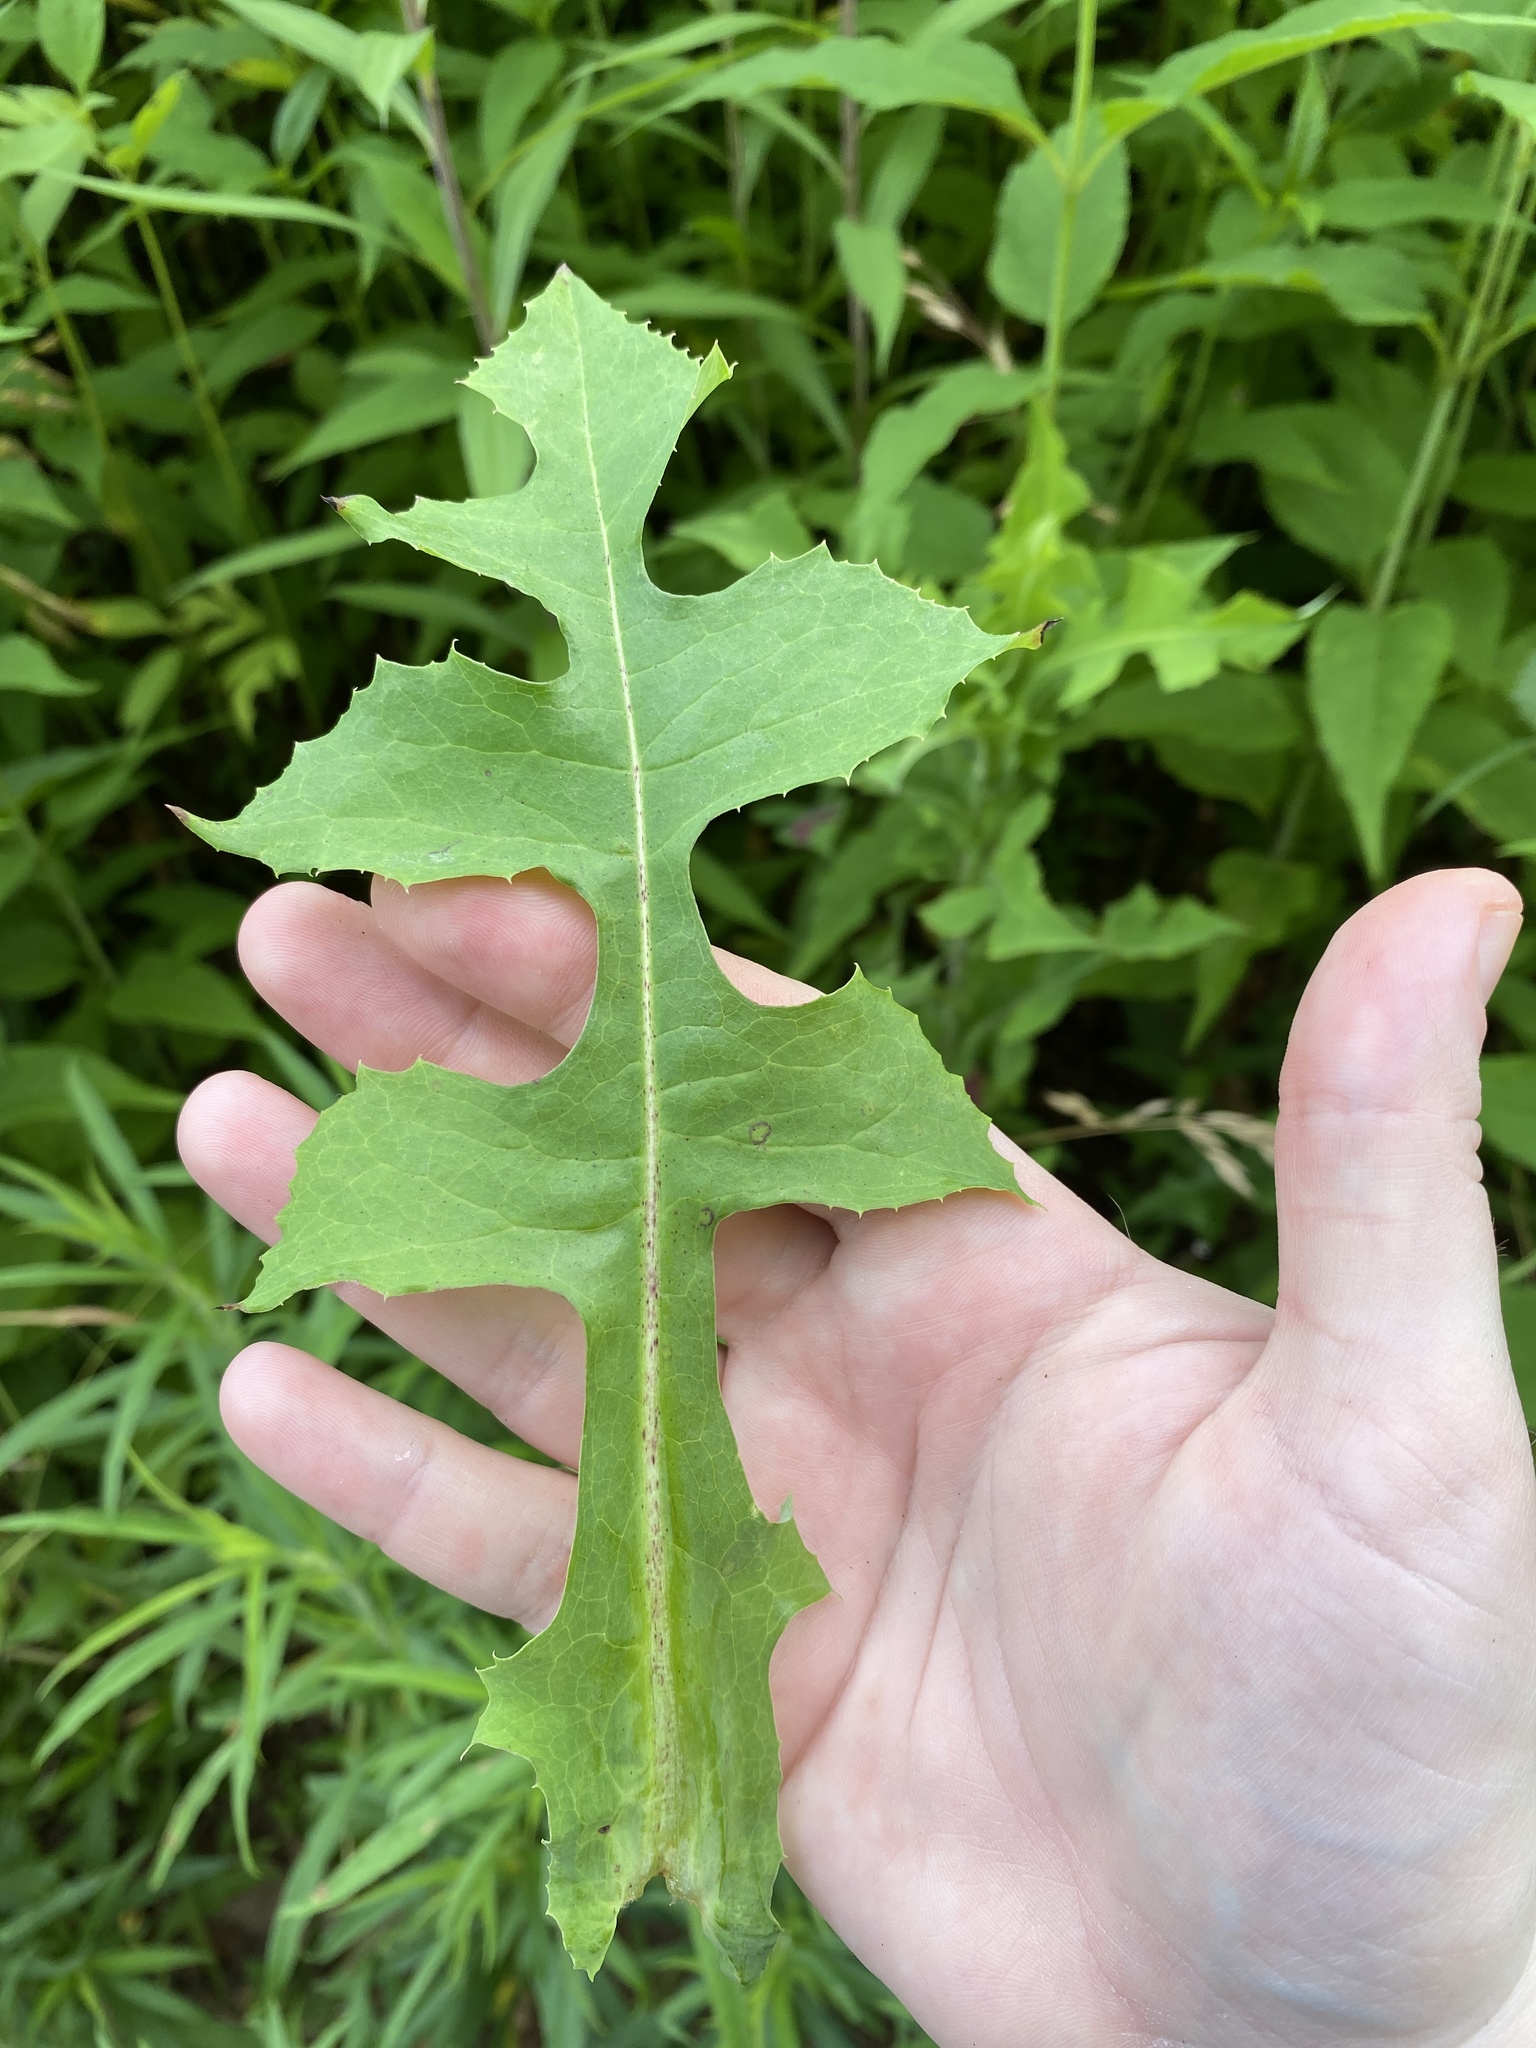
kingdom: Plantae
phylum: Tracheophyta
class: Magnoliopsida
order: Asterales
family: Asteraceae
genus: Lactuca
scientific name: Lactuca canadensis
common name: Canada lettuce
